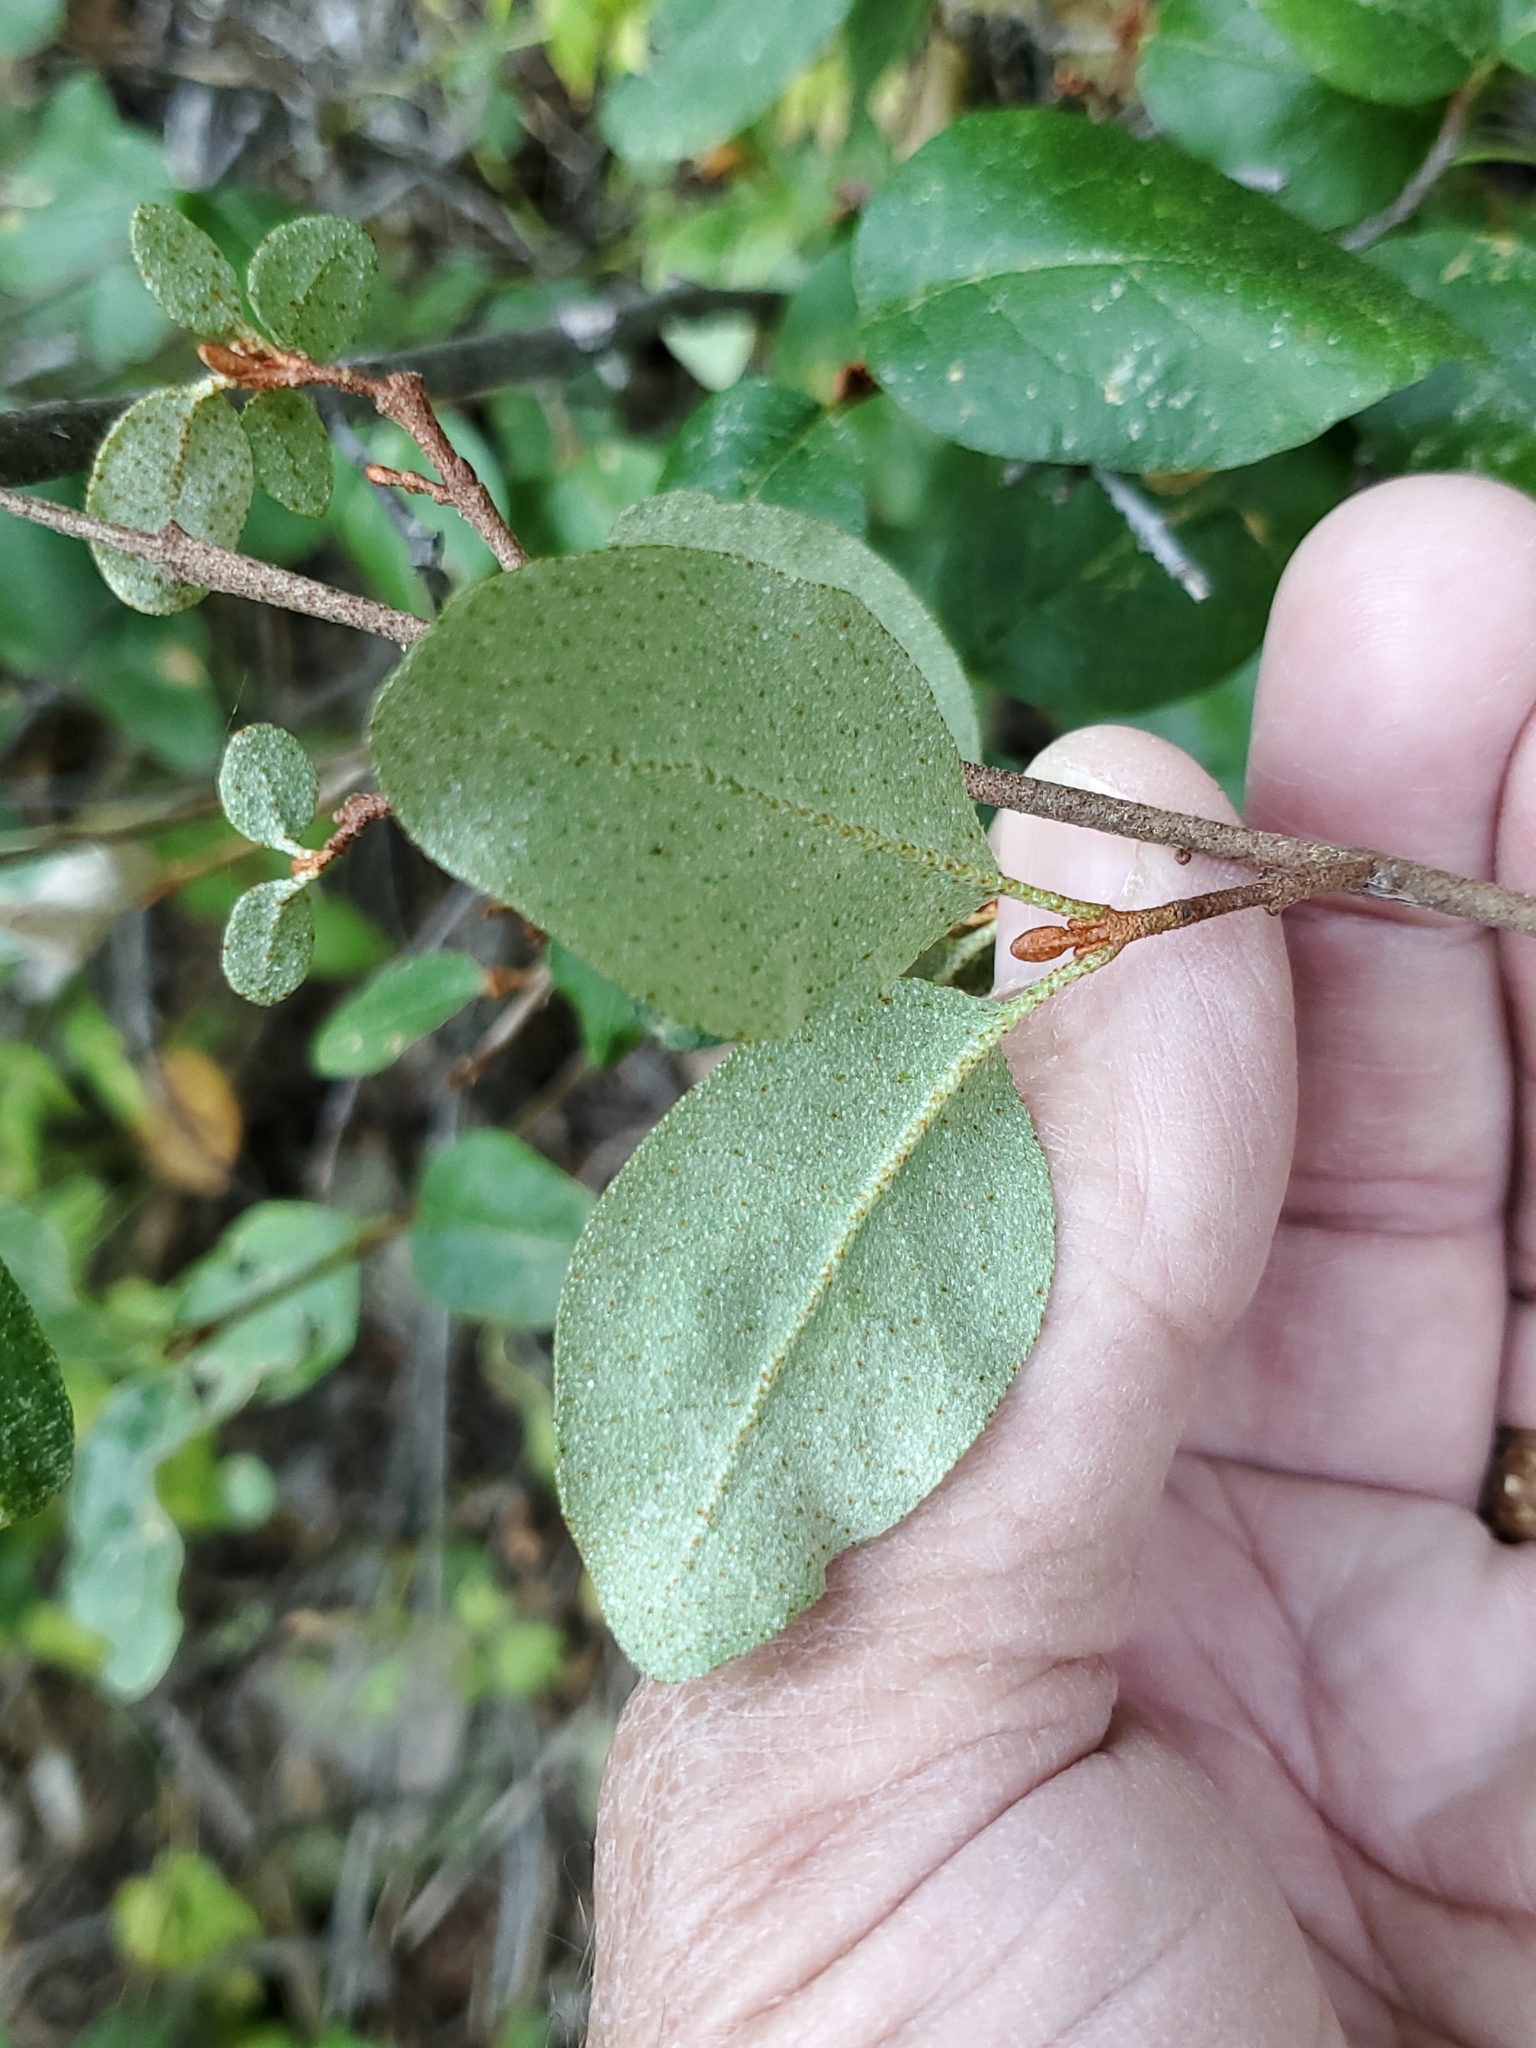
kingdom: Plantae
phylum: Tracheophyta
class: Magnoliopsida
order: Rosales
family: Elaeagnaceae
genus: Shepherdia
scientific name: Shepherdia canadensis
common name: Soapberry
